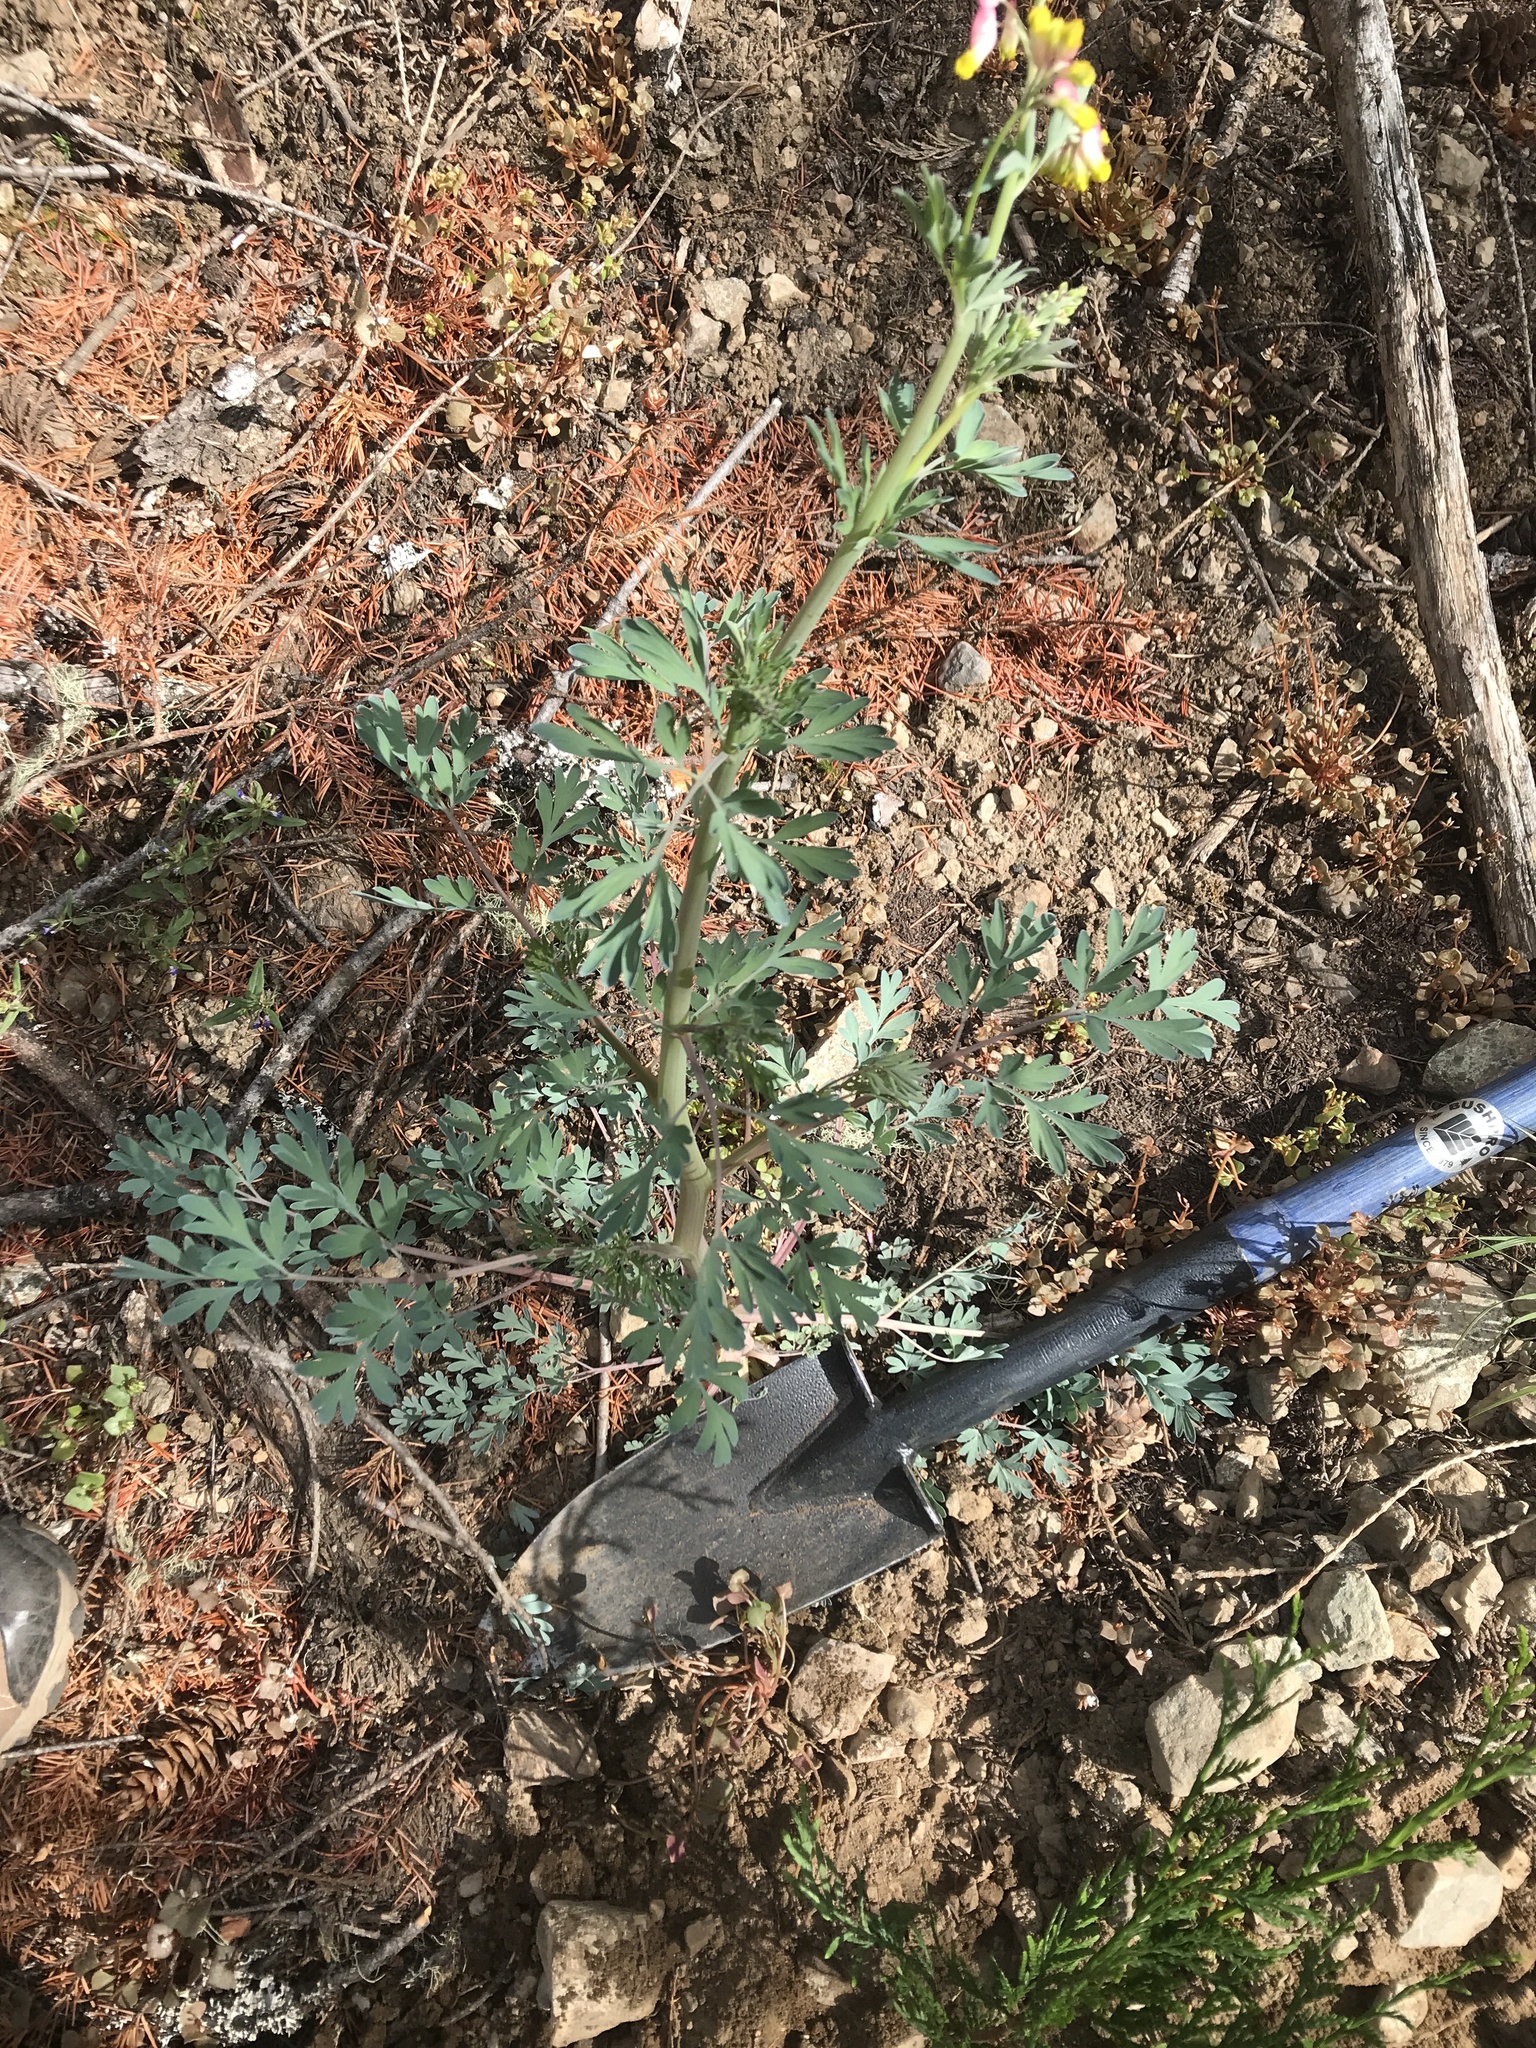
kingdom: Plantae
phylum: Tracheophyta
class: Magnoliopsida
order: Ranunculales
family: Papaveraceae
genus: Capnoides
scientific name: Capnoides sempervirens
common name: Rock harlequin
